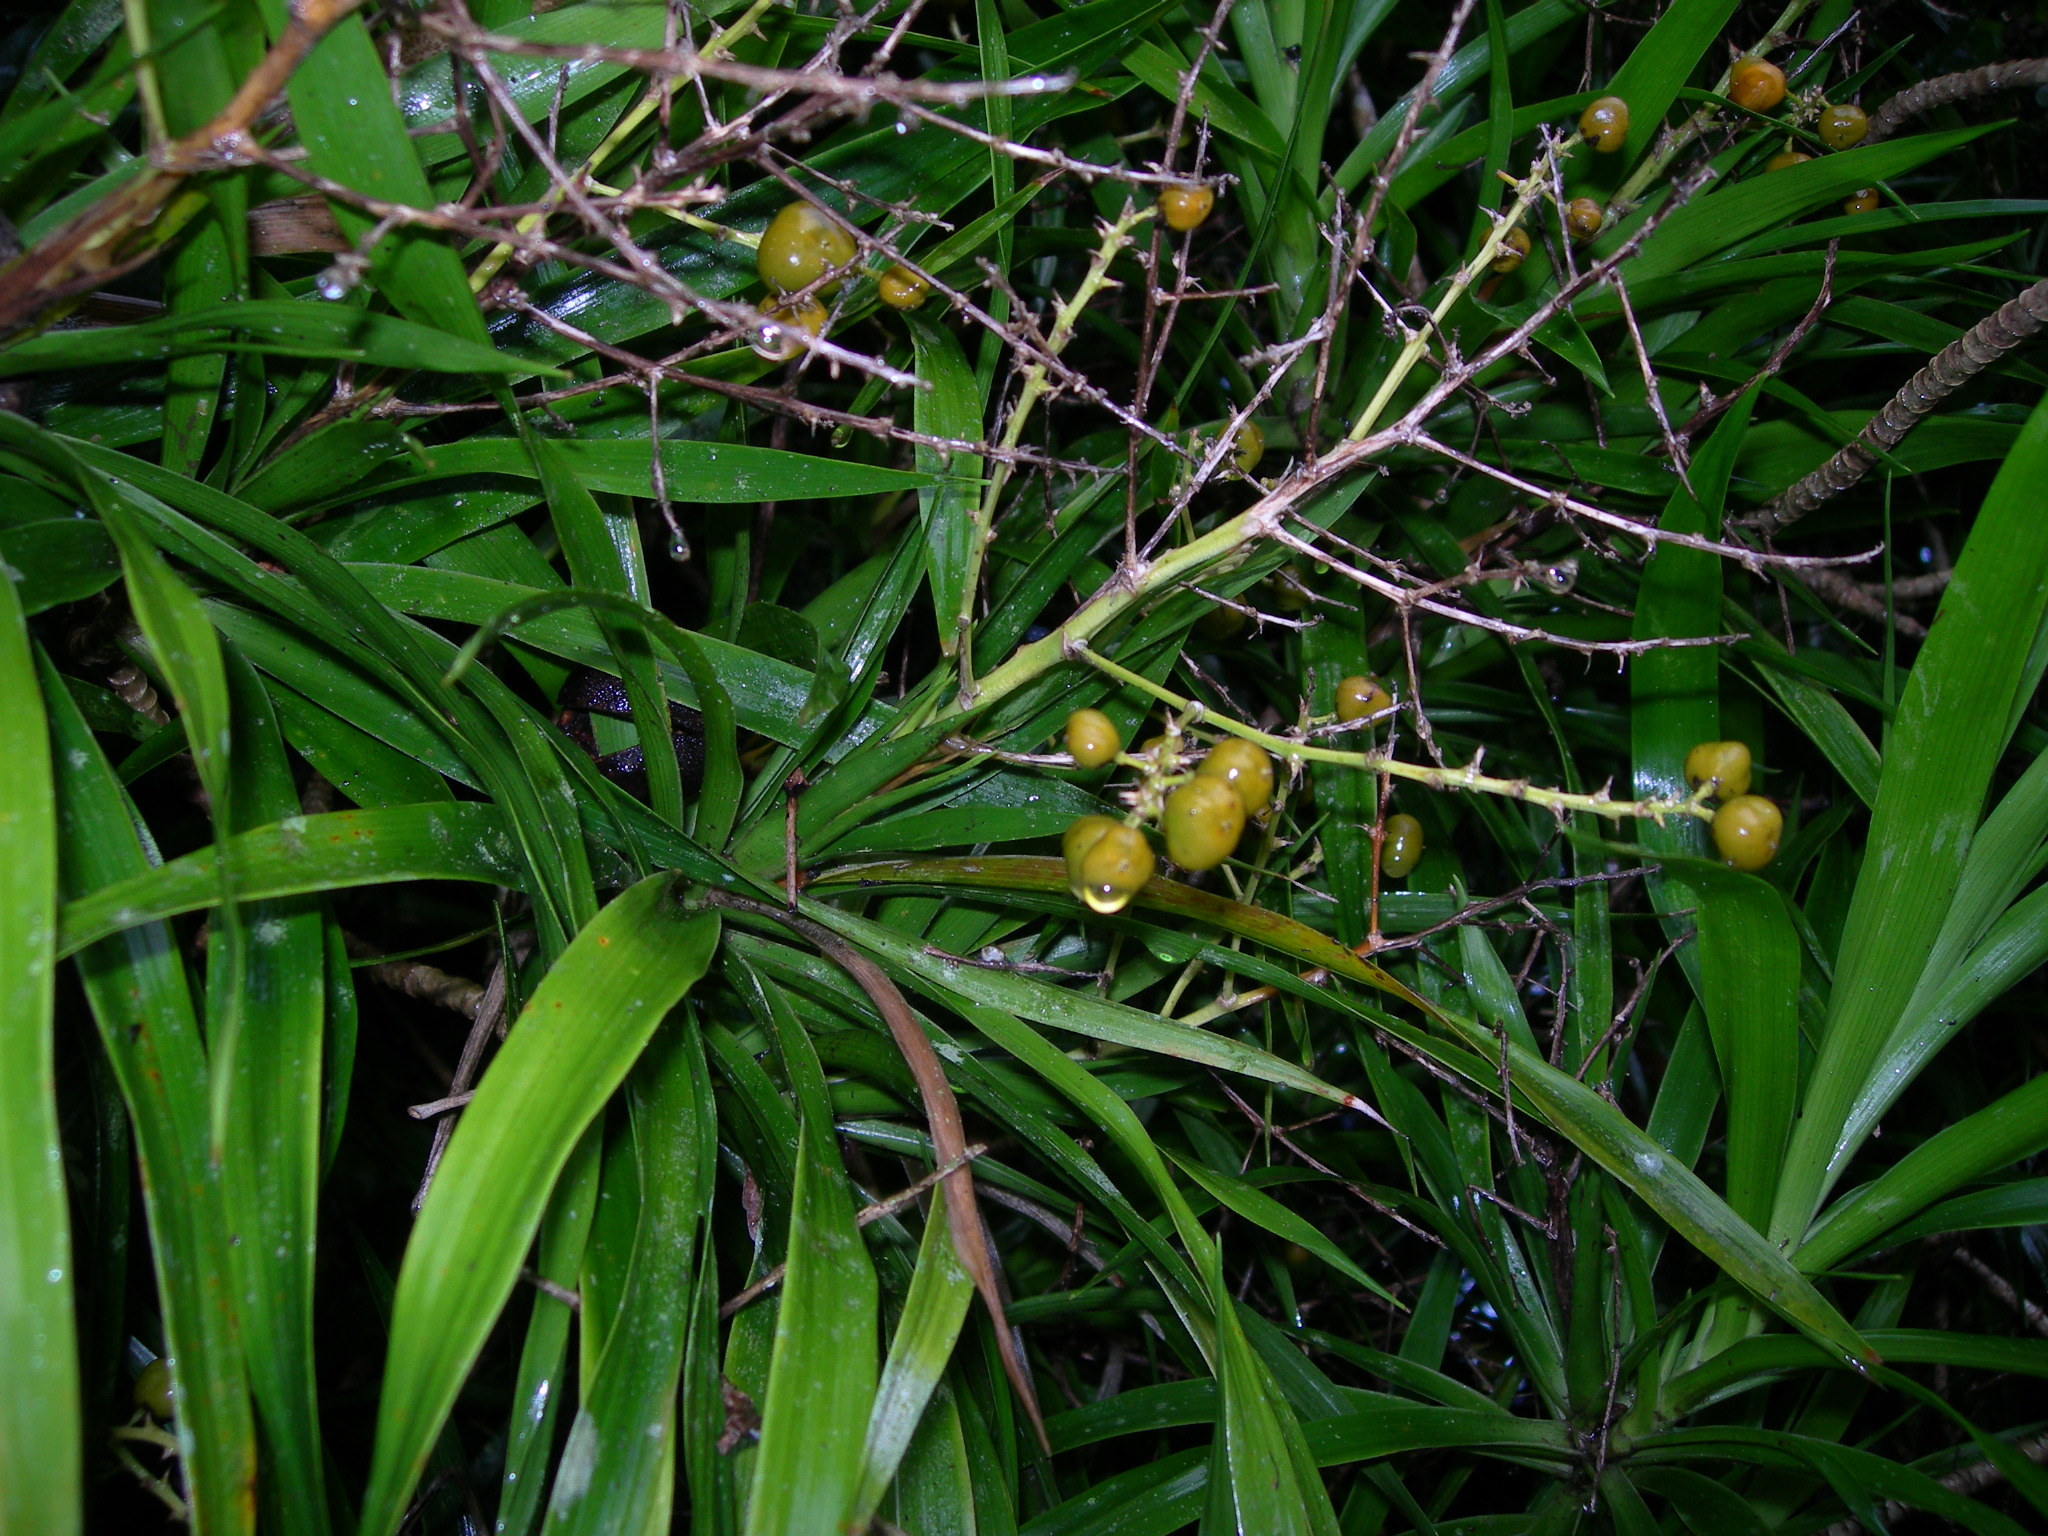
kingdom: Plantae
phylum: Tracheophyta
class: Liliopsida
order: Asparagales
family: Asparagaceae
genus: Dracaena
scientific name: Dracaena ghiesbreghtii
